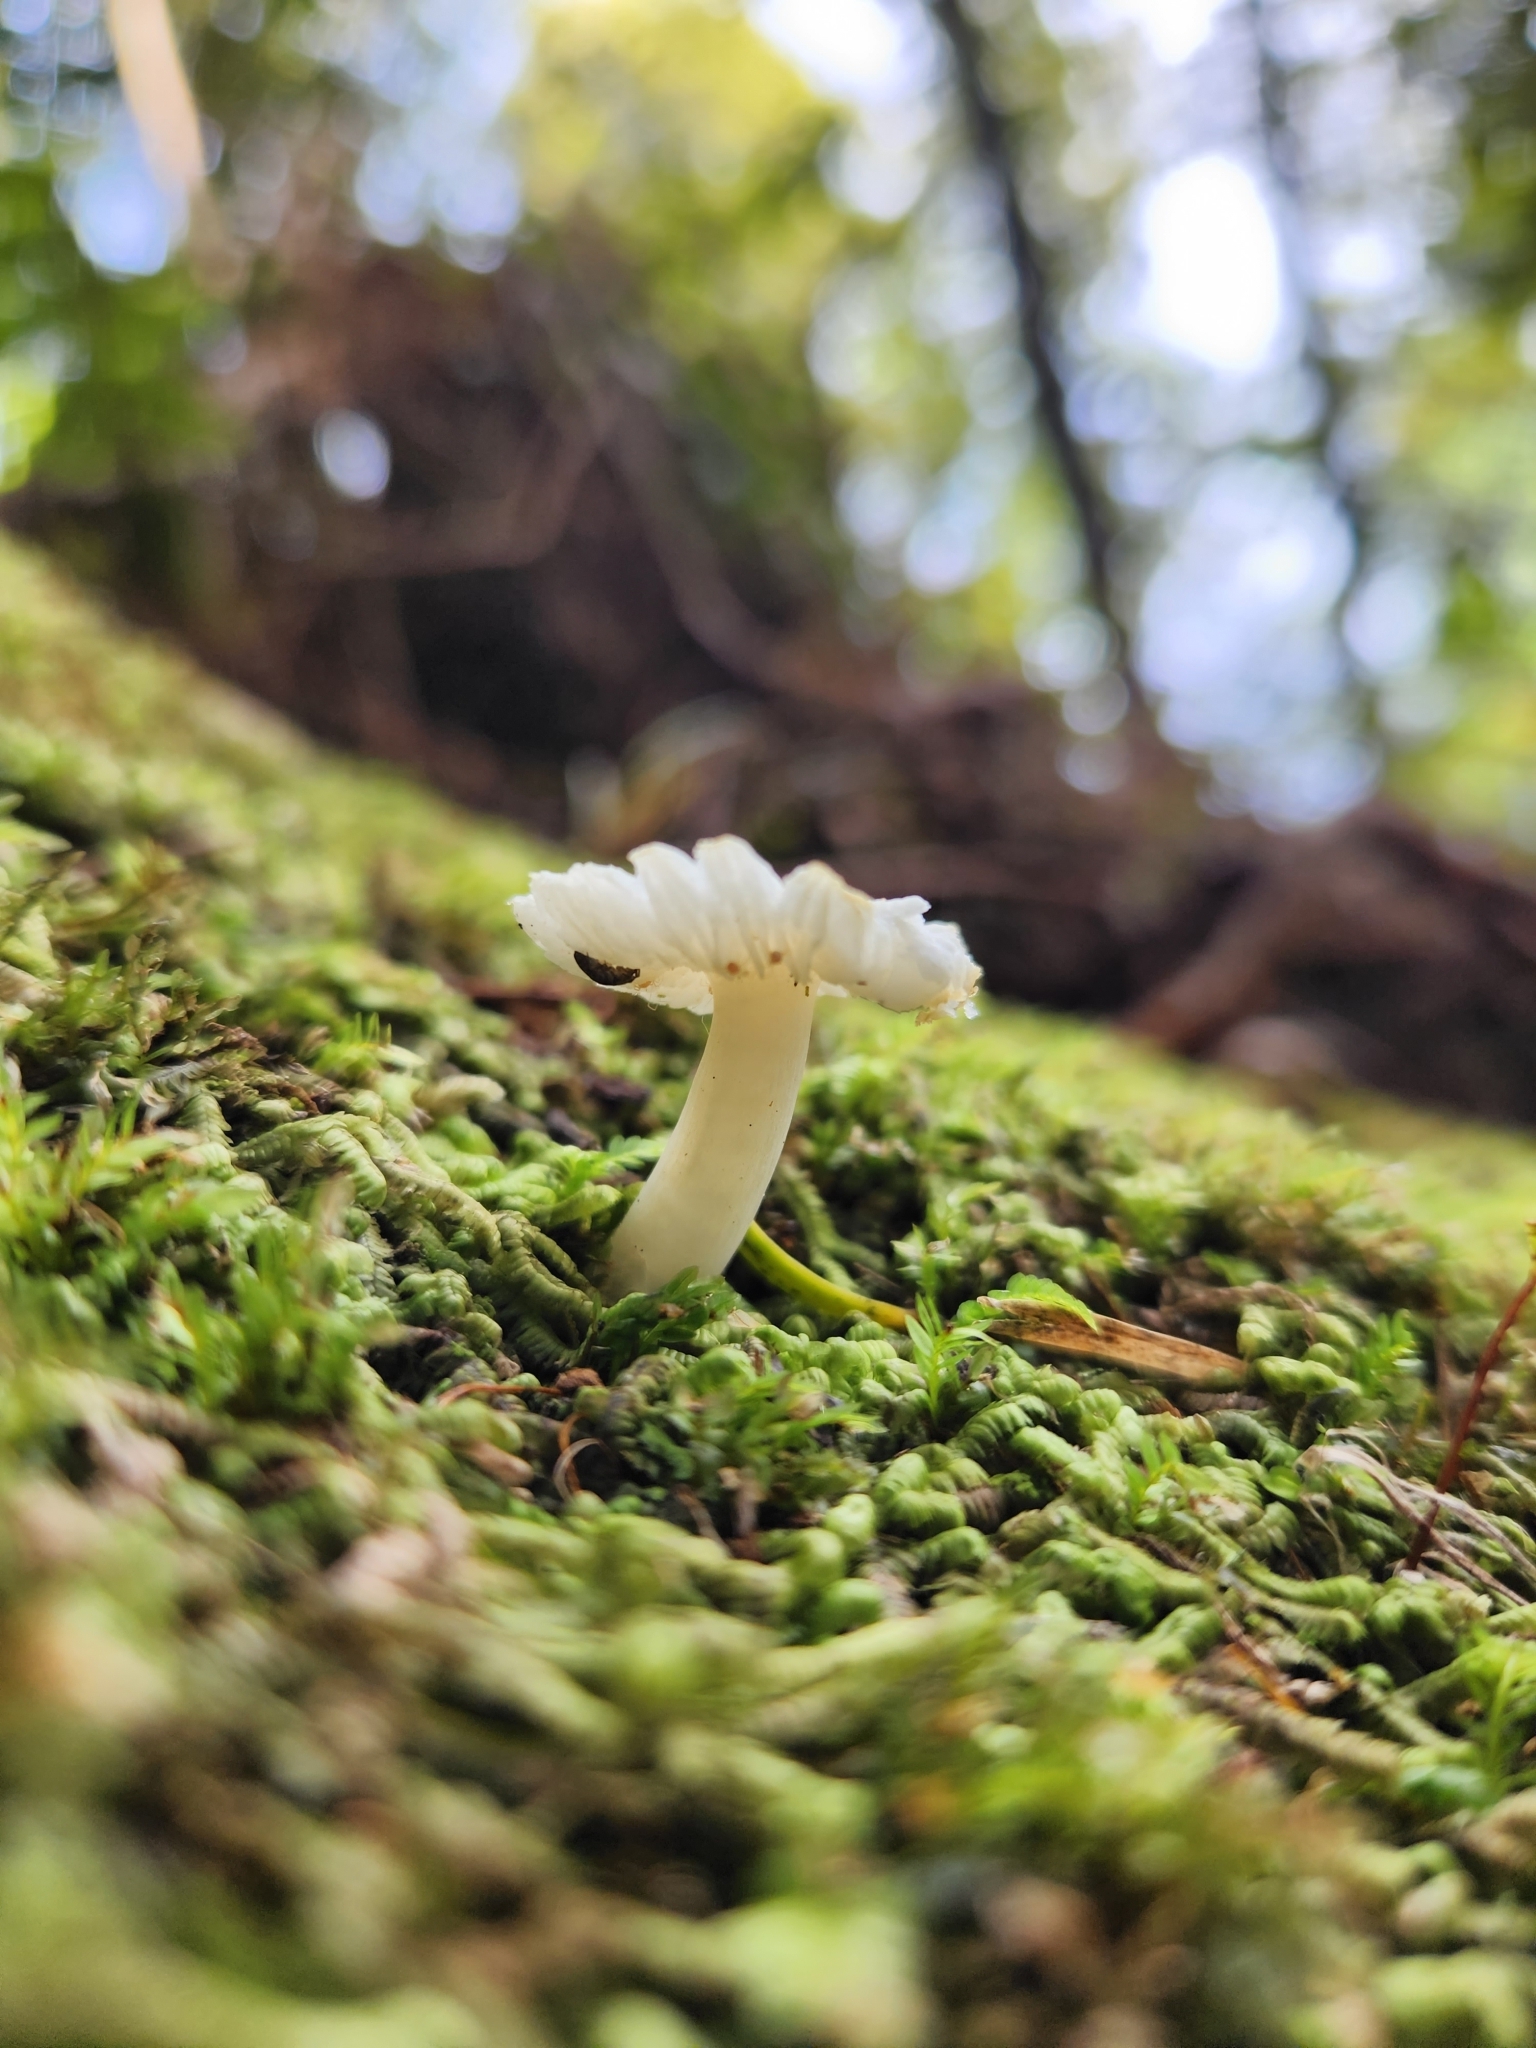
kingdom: Fungi
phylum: Basidiomycota
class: Agaricomycetes
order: Agaricales
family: Hygrophoraceae
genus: Humidicutis
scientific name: Humidicutis mavis
